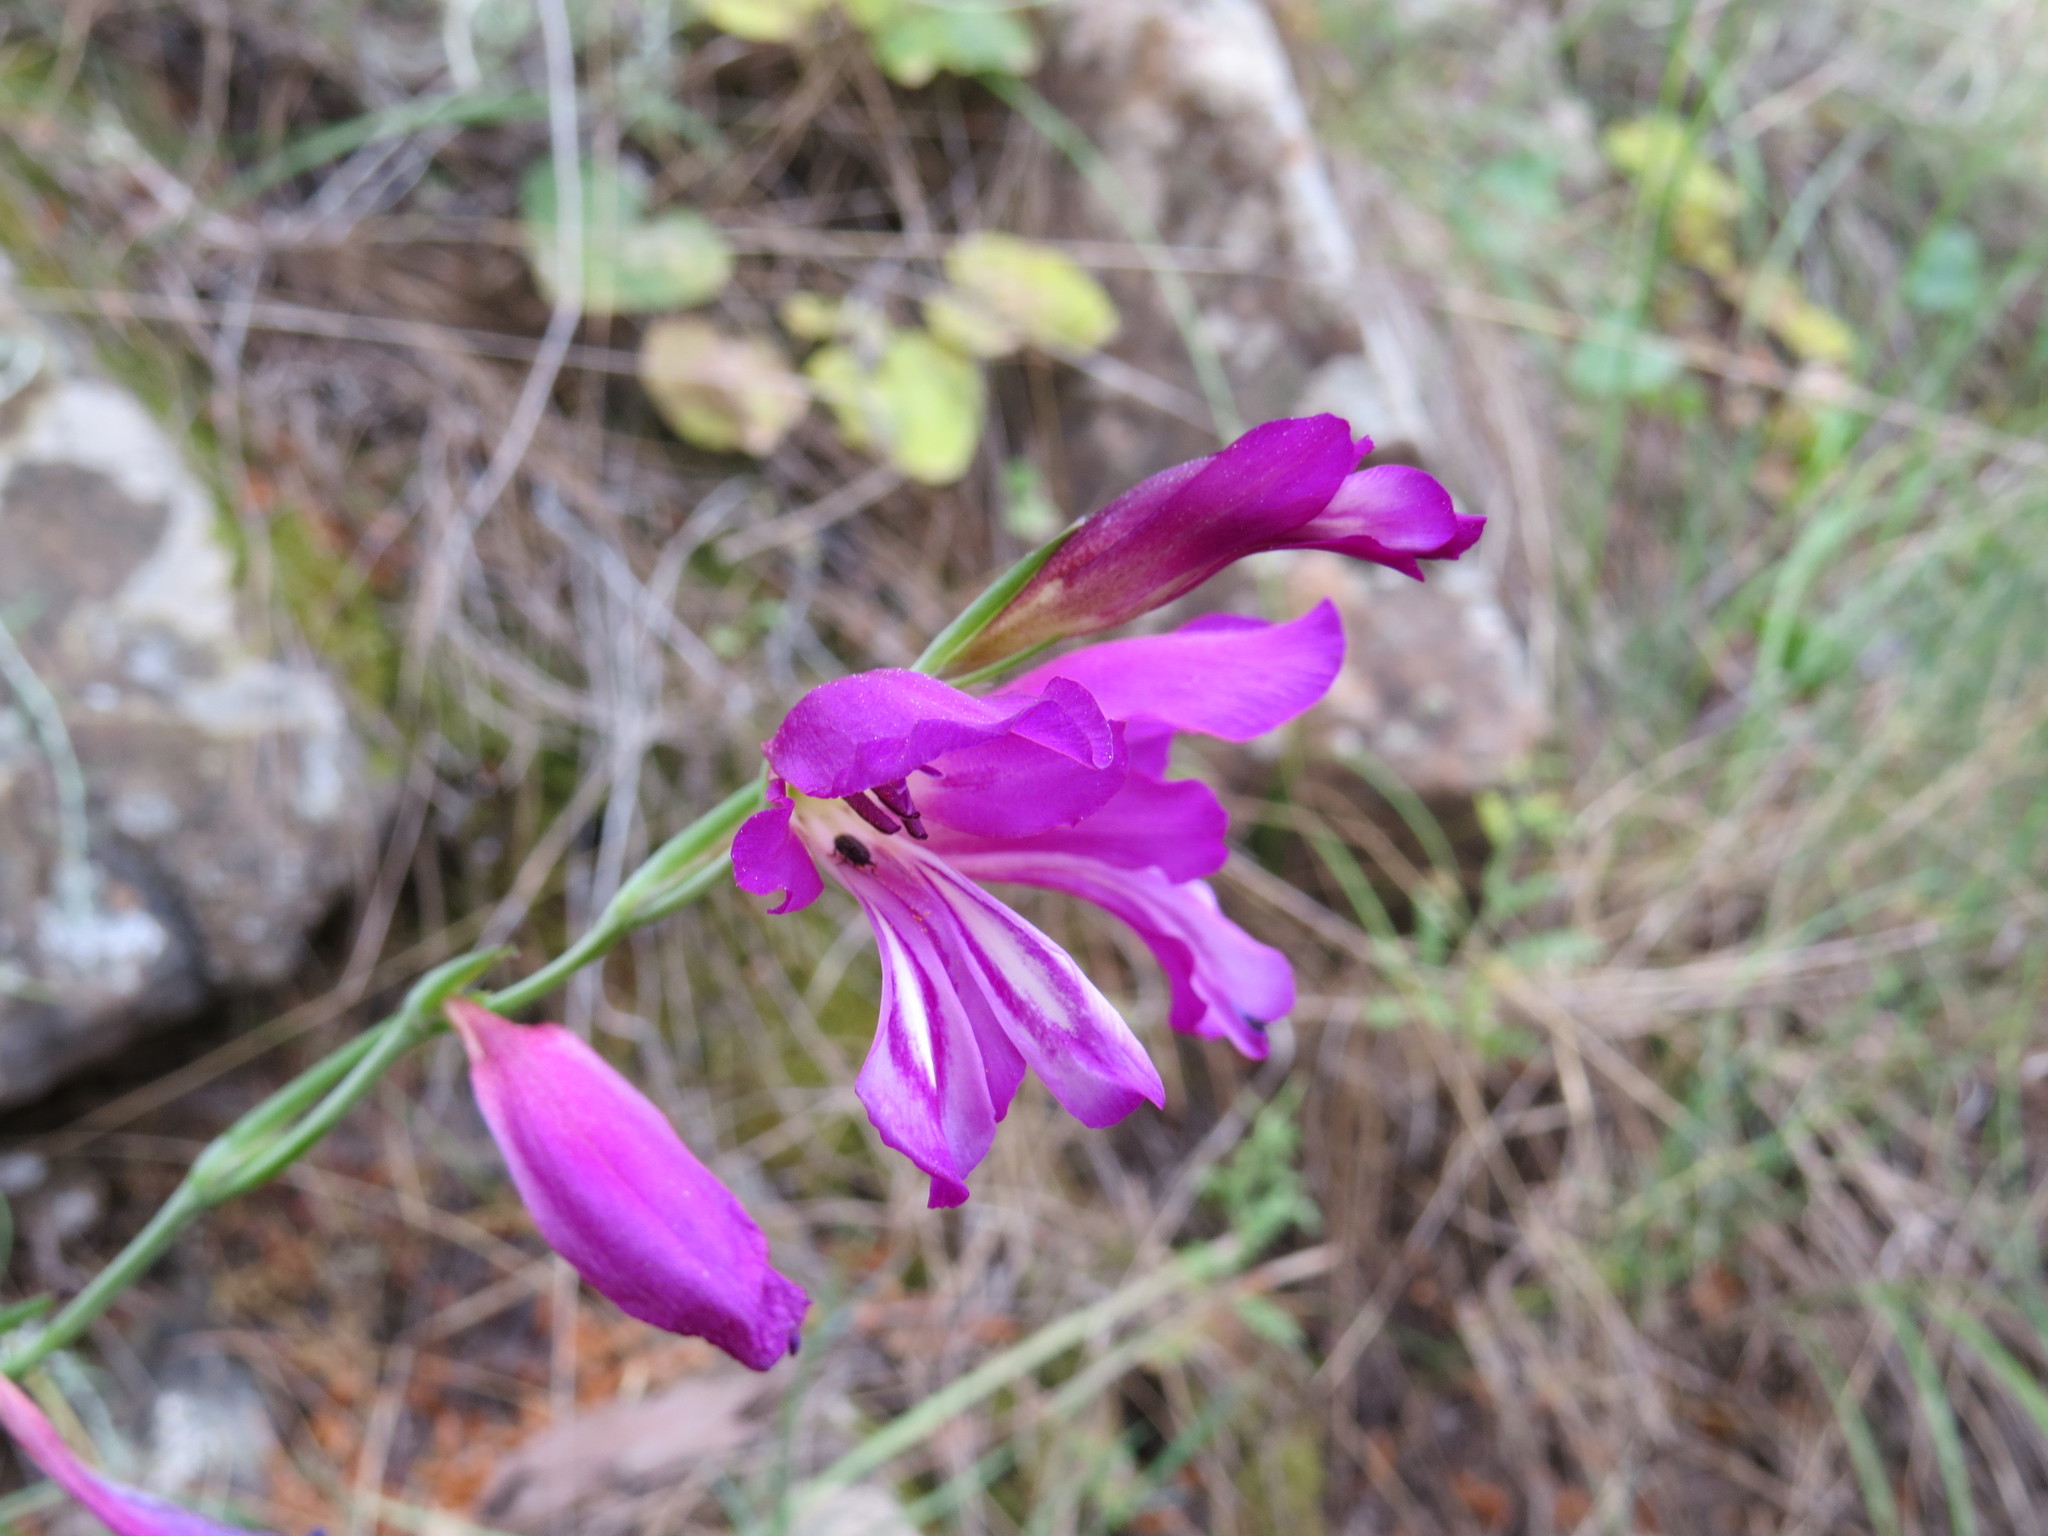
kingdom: Plantae
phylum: Tracheophyta
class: Liliopsida
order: Asparagales
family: Iridaceae
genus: Gladiolus
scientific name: Gladiolus italicus
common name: Field gladiolus
